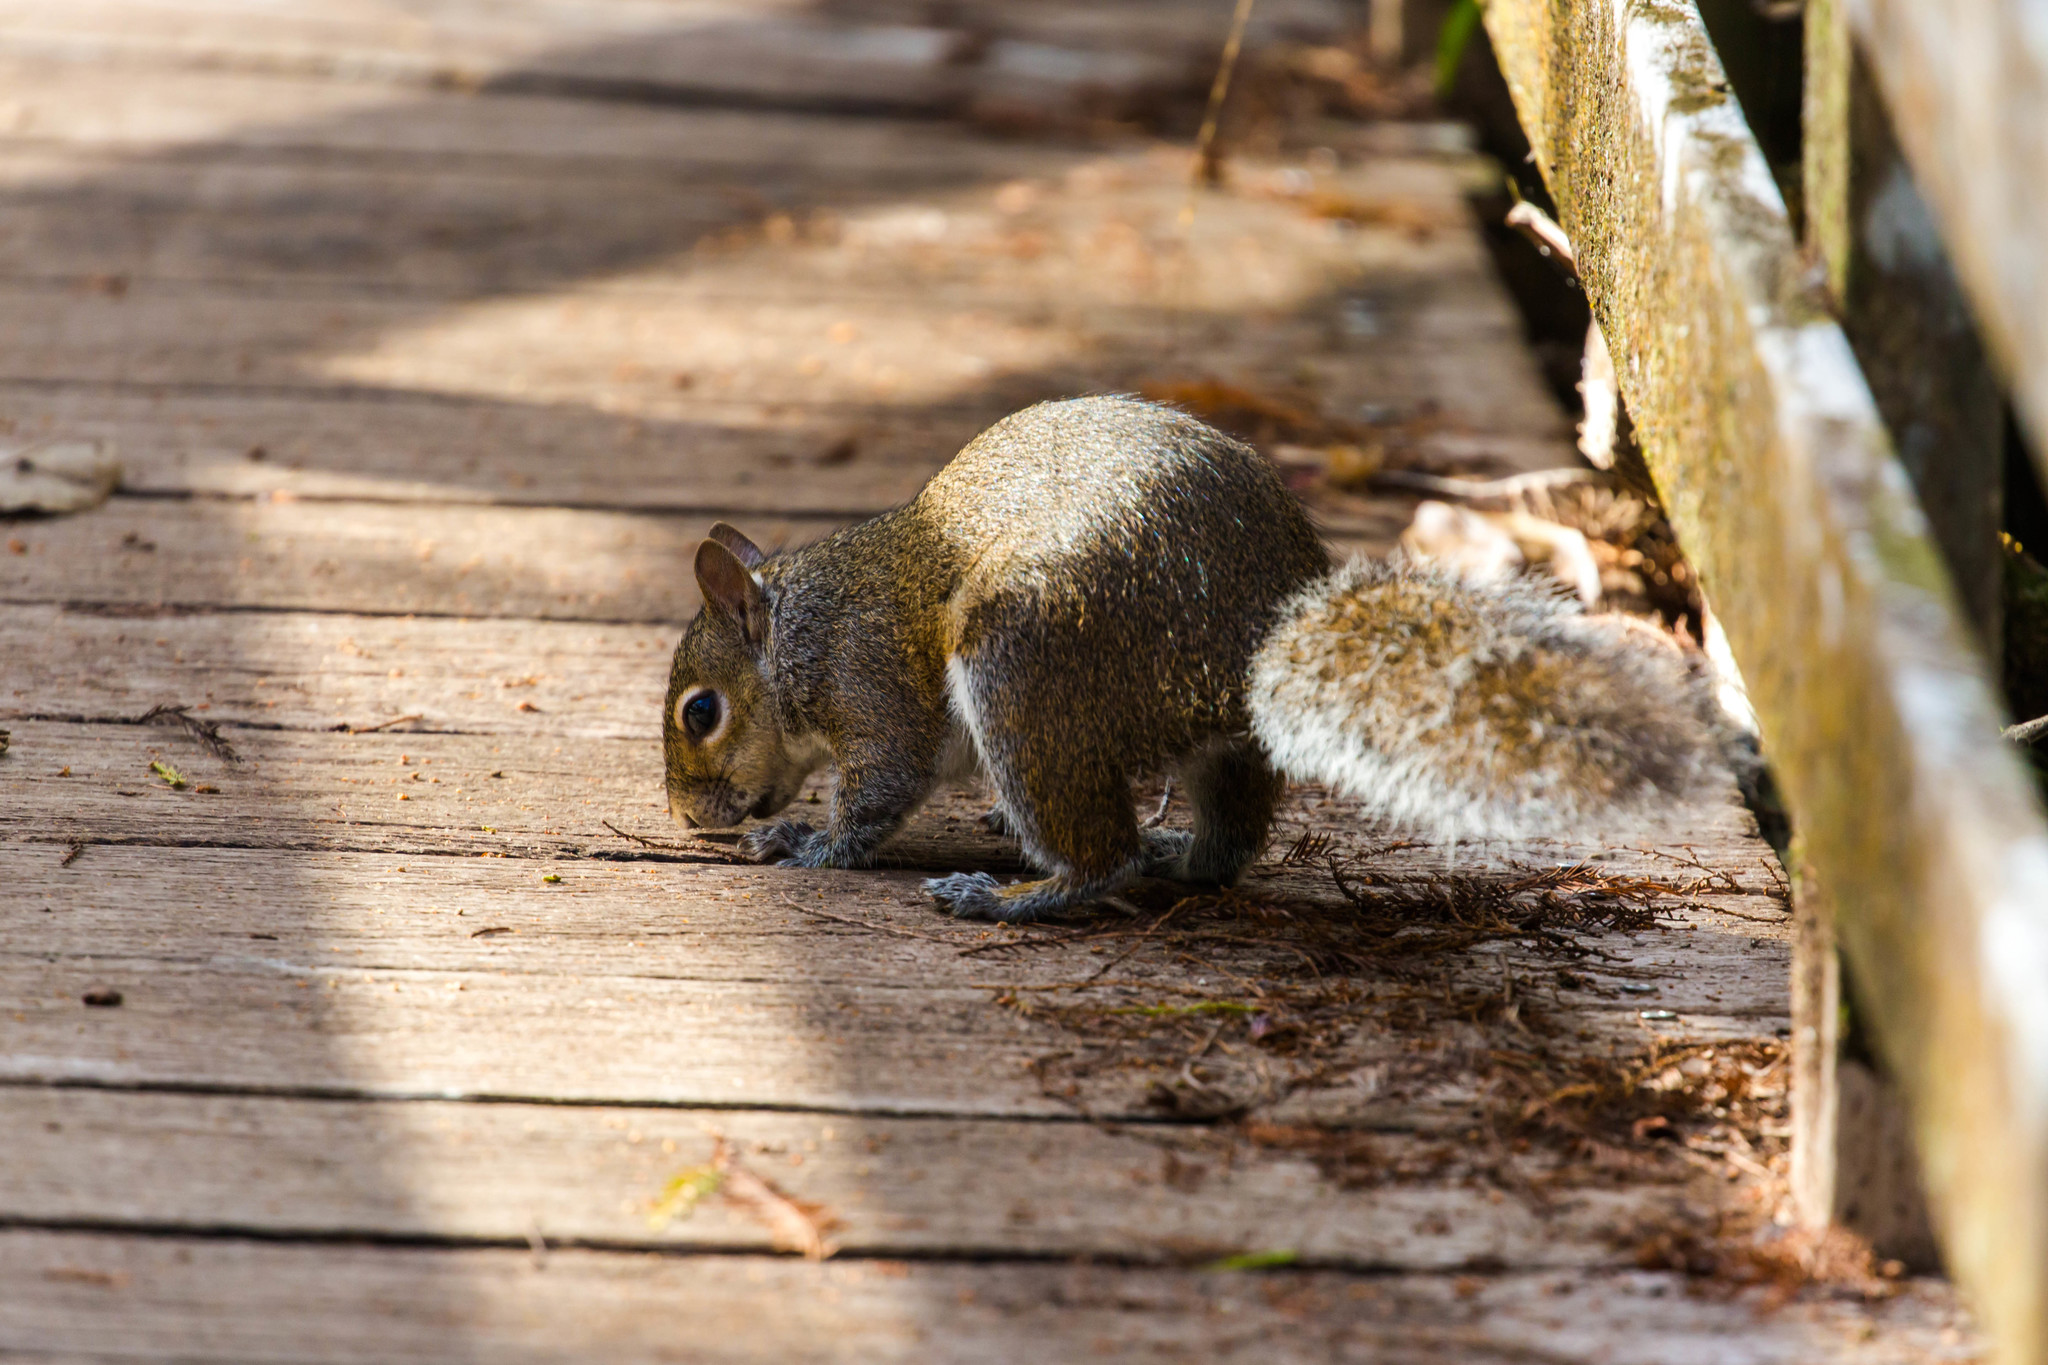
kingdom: Animalia
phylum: Chordata
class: Mammalia
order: Rodentia
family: Sciuridae
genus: Sciurus
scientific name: Sciurus carolinensis
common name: Eastern gray squirrel
